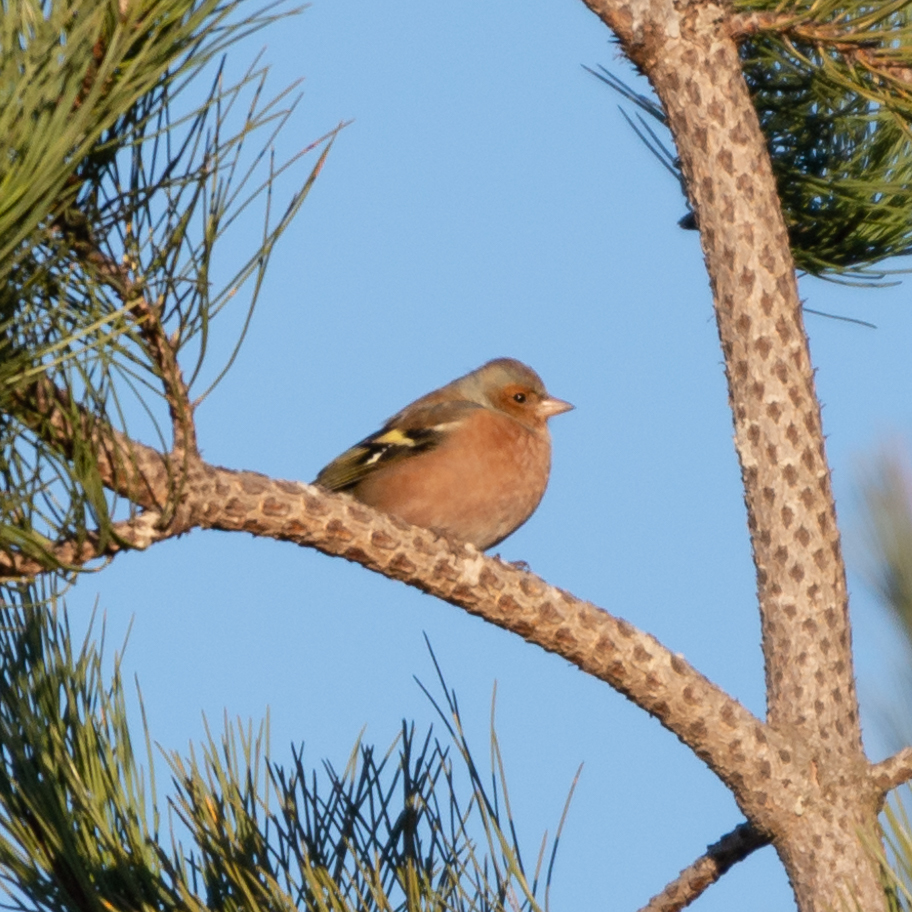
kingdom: Animalia
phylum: Chordata
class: Aves
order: Passeriformes
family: Fringillidae
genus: Fringilla
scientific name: Fringilla coelebs
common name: Common chaffinch
